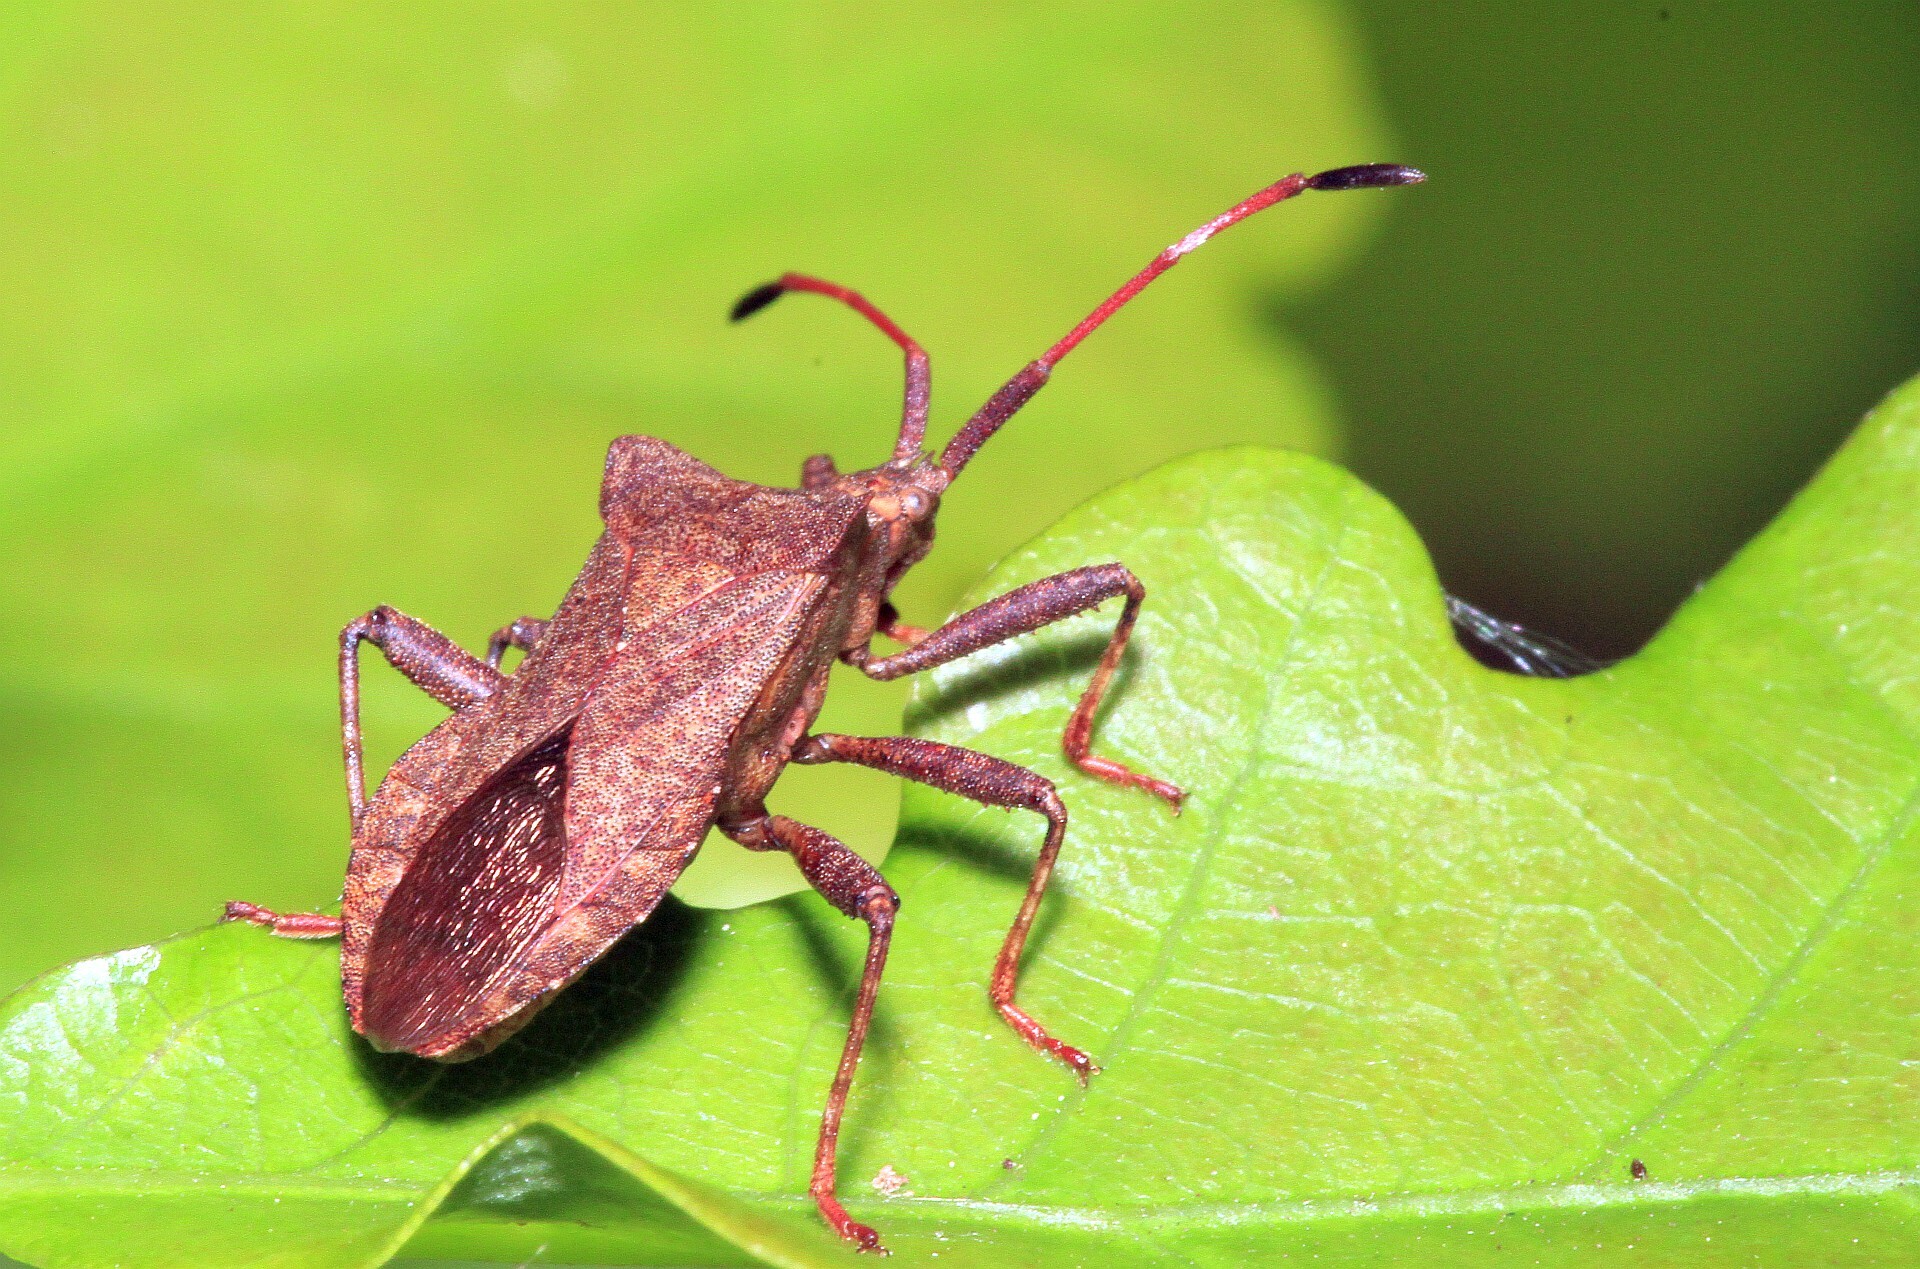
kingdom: Animalia
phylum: Arthropoda
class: Insecta
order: Hemiptera
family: Coreidae
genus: Coreus
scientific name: Coreus marginatus
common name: Dock bug
